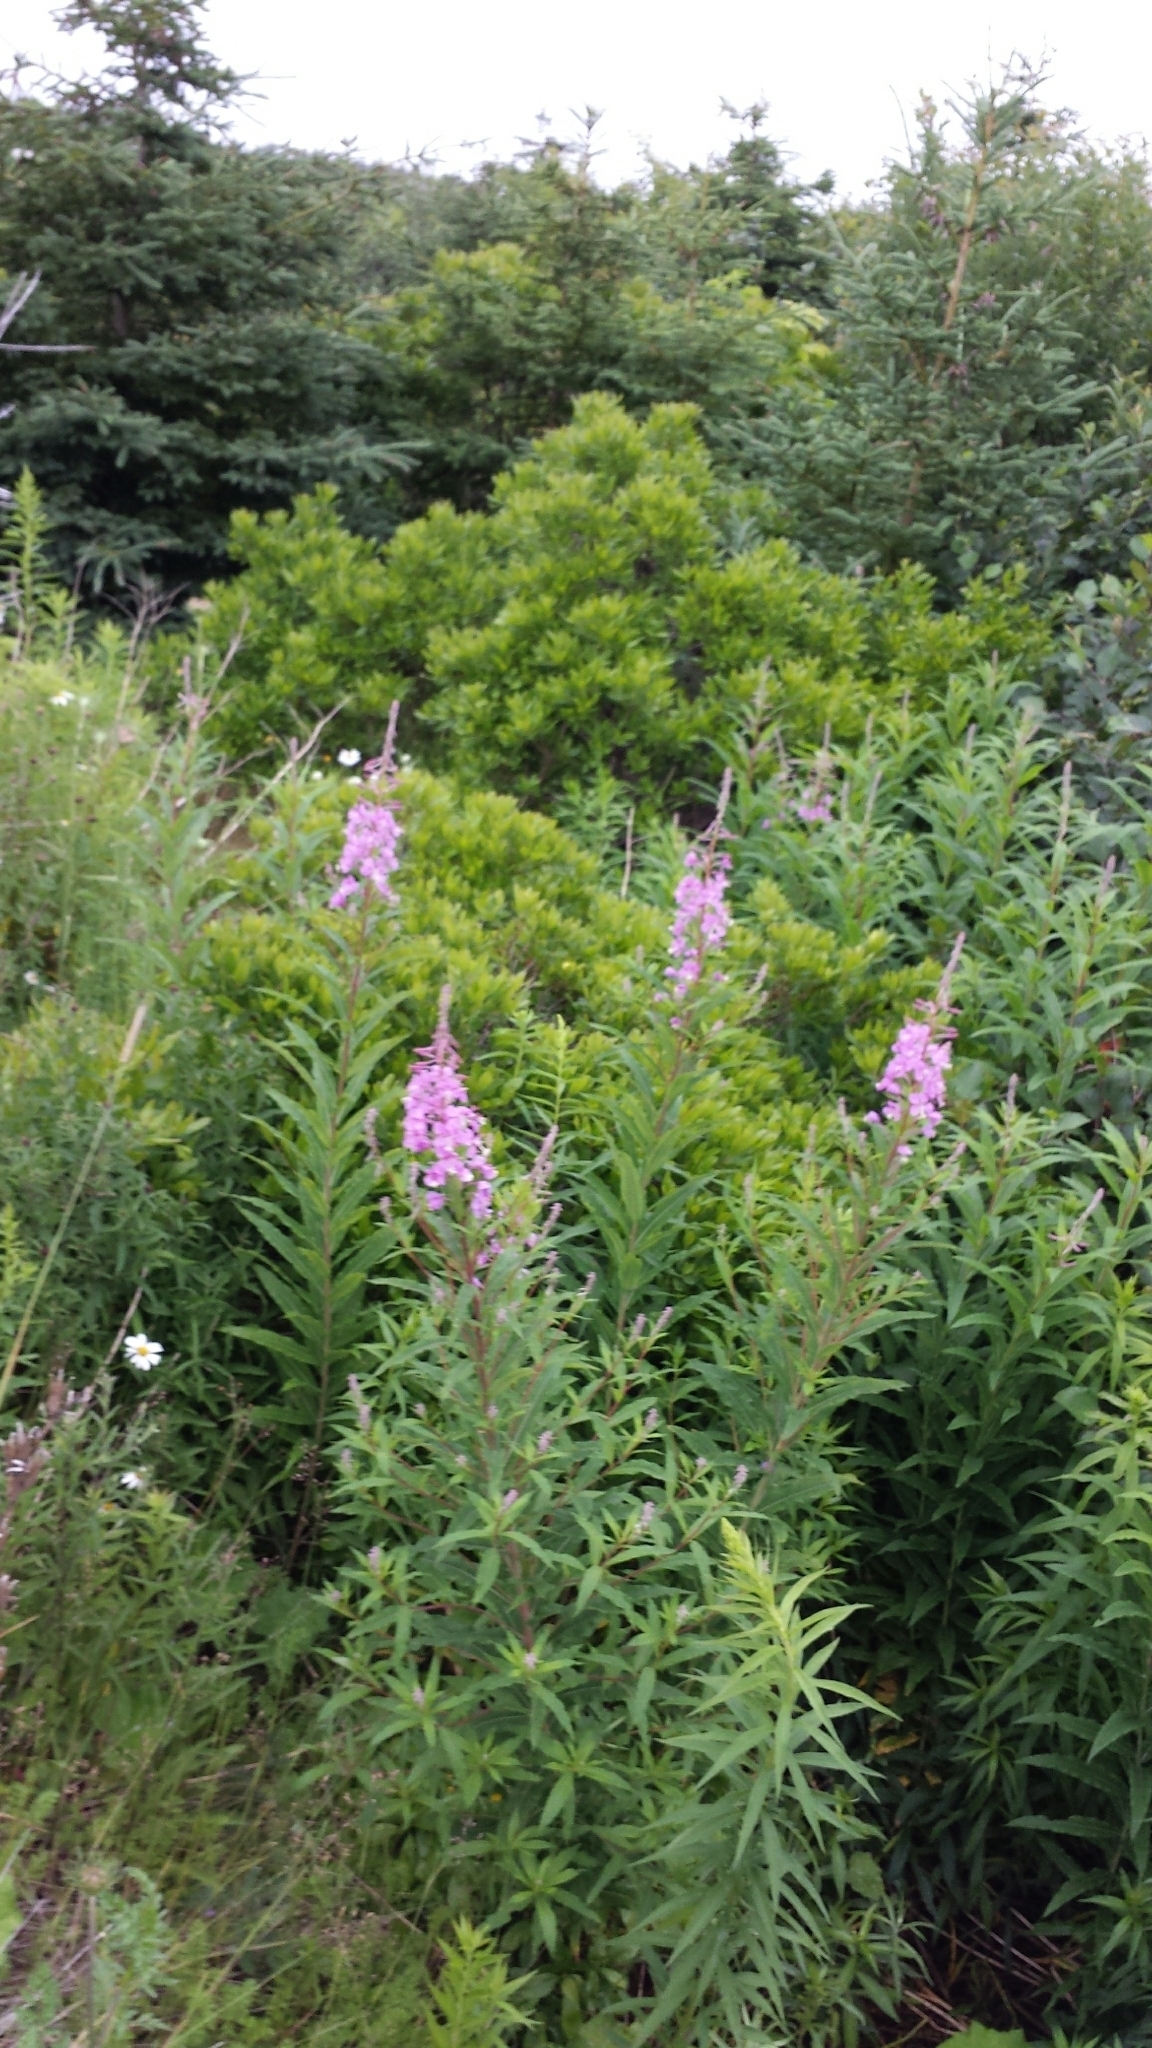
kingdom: Plantae
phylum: Tracheophyta
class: Magnoliopsida
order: Myrtales
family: Onagraceae
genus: Chamaenerion
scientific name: Chamaenerion angustifolium
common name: Fireweed
